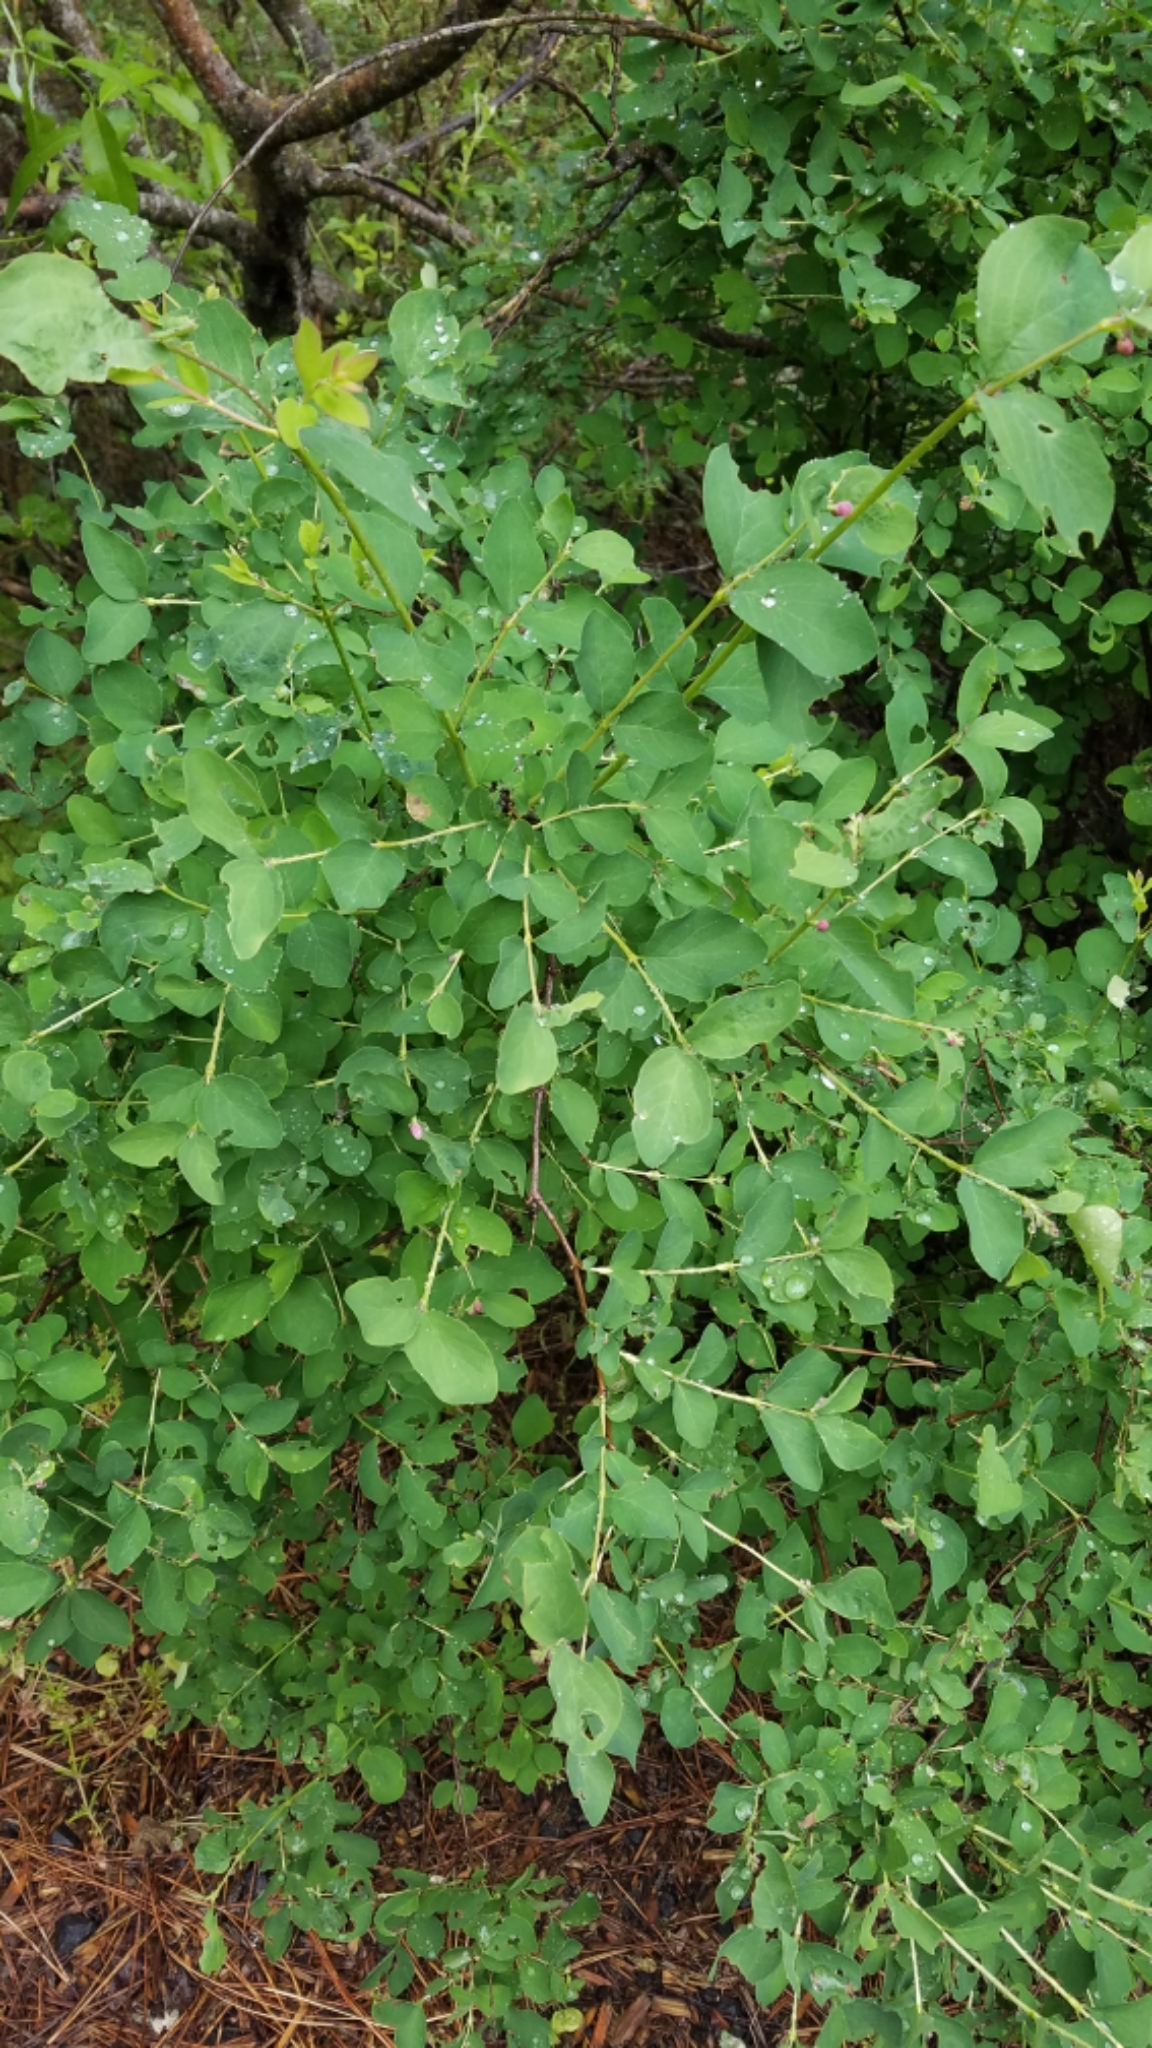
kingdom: Plantae
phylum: Tracheophyta
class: Magnoliopsida
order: Dipsacales
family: Caprifoliaceae
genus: Symphoricarpos
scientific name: Symphoricarpos albus
